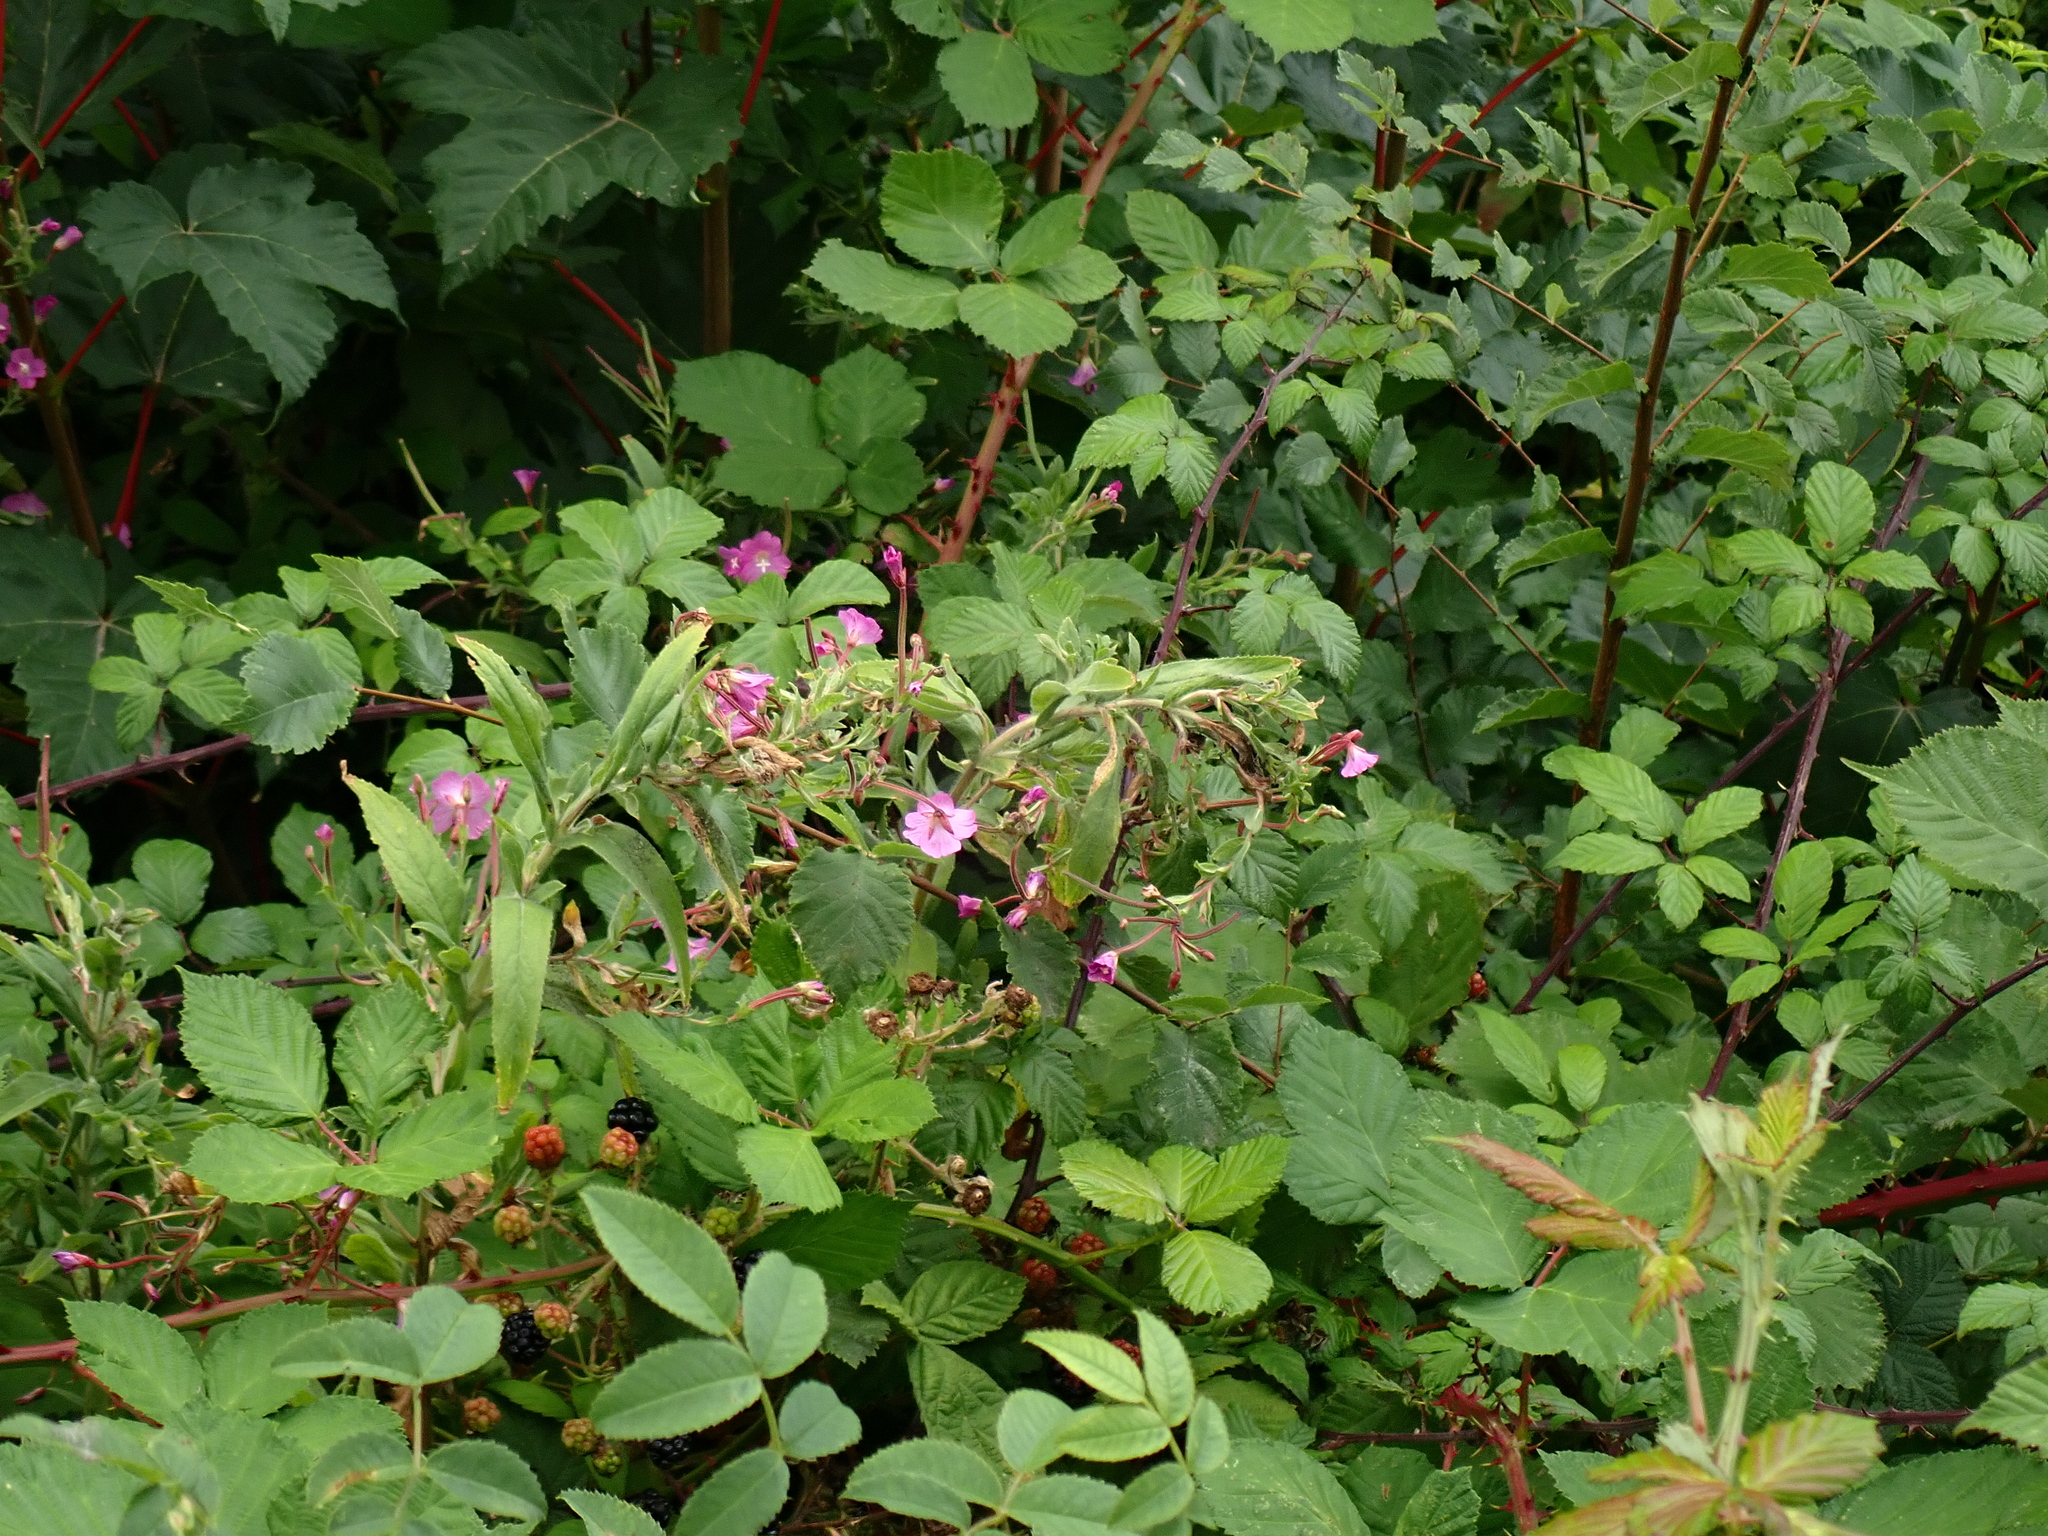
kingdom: Plantae
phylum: Tracheophyta
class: Magnoliopsida
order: Myrtales
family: Onagraceae
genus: Epilobium
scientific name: Epilobium hirsutum
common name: Great willowherb
